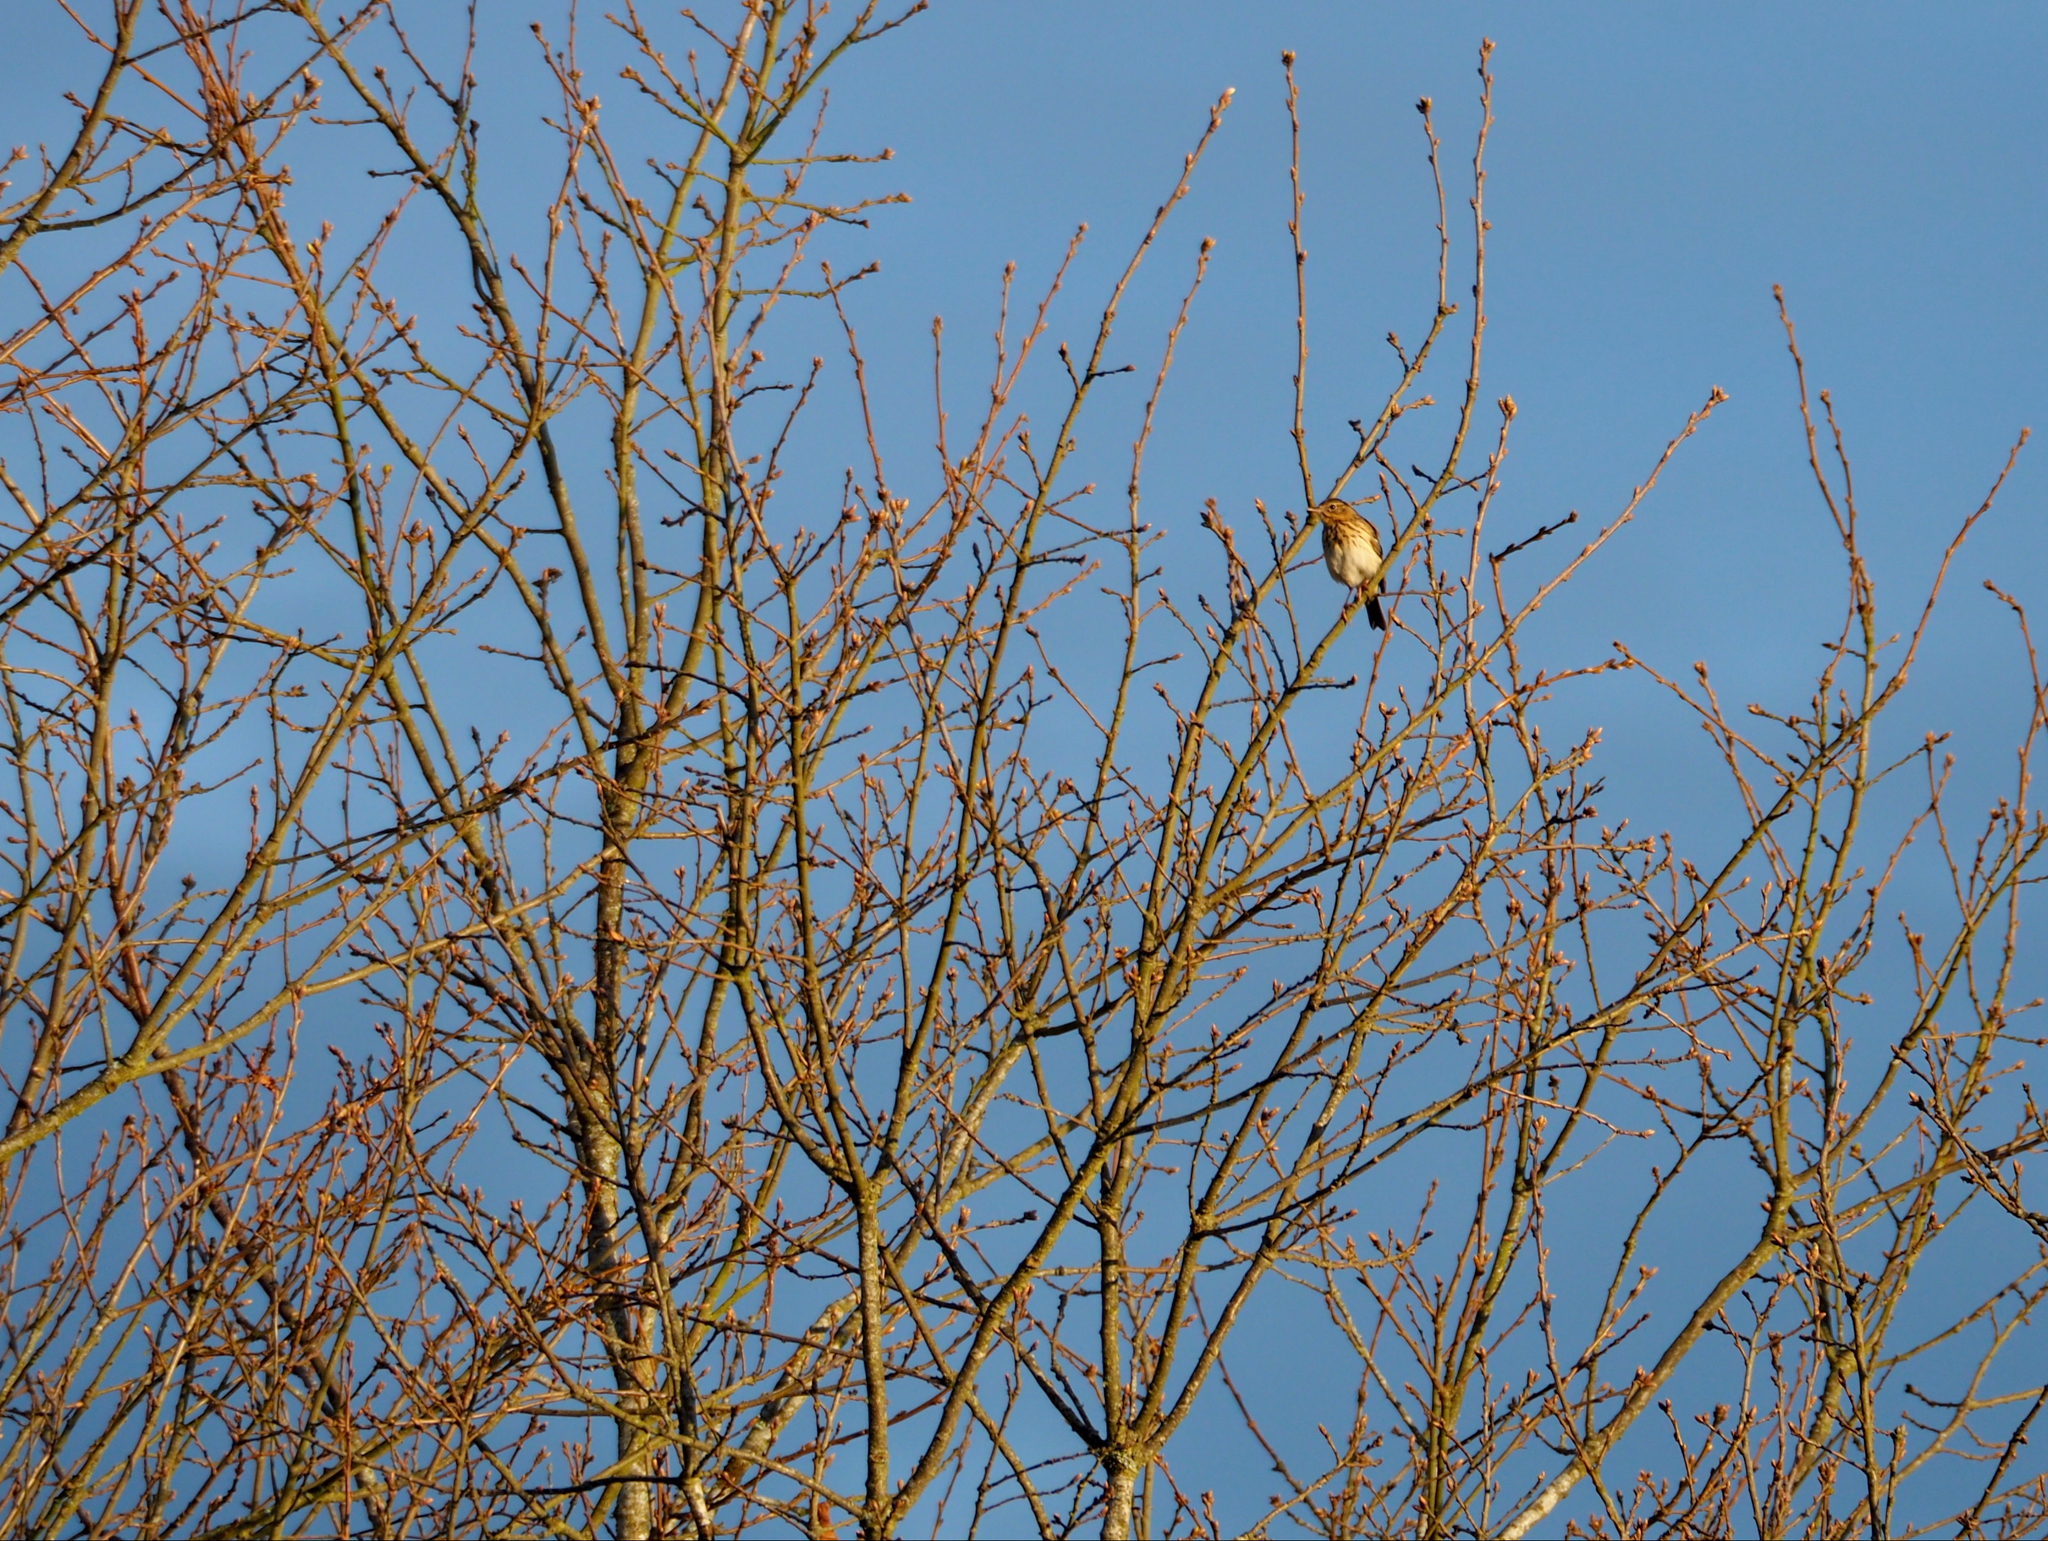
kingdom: Animalia
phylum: Chordata
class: Aves
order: Passeriformes
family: Motacillidae
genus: Anthus
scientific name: Anthus trivialis
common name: Tree pipit
